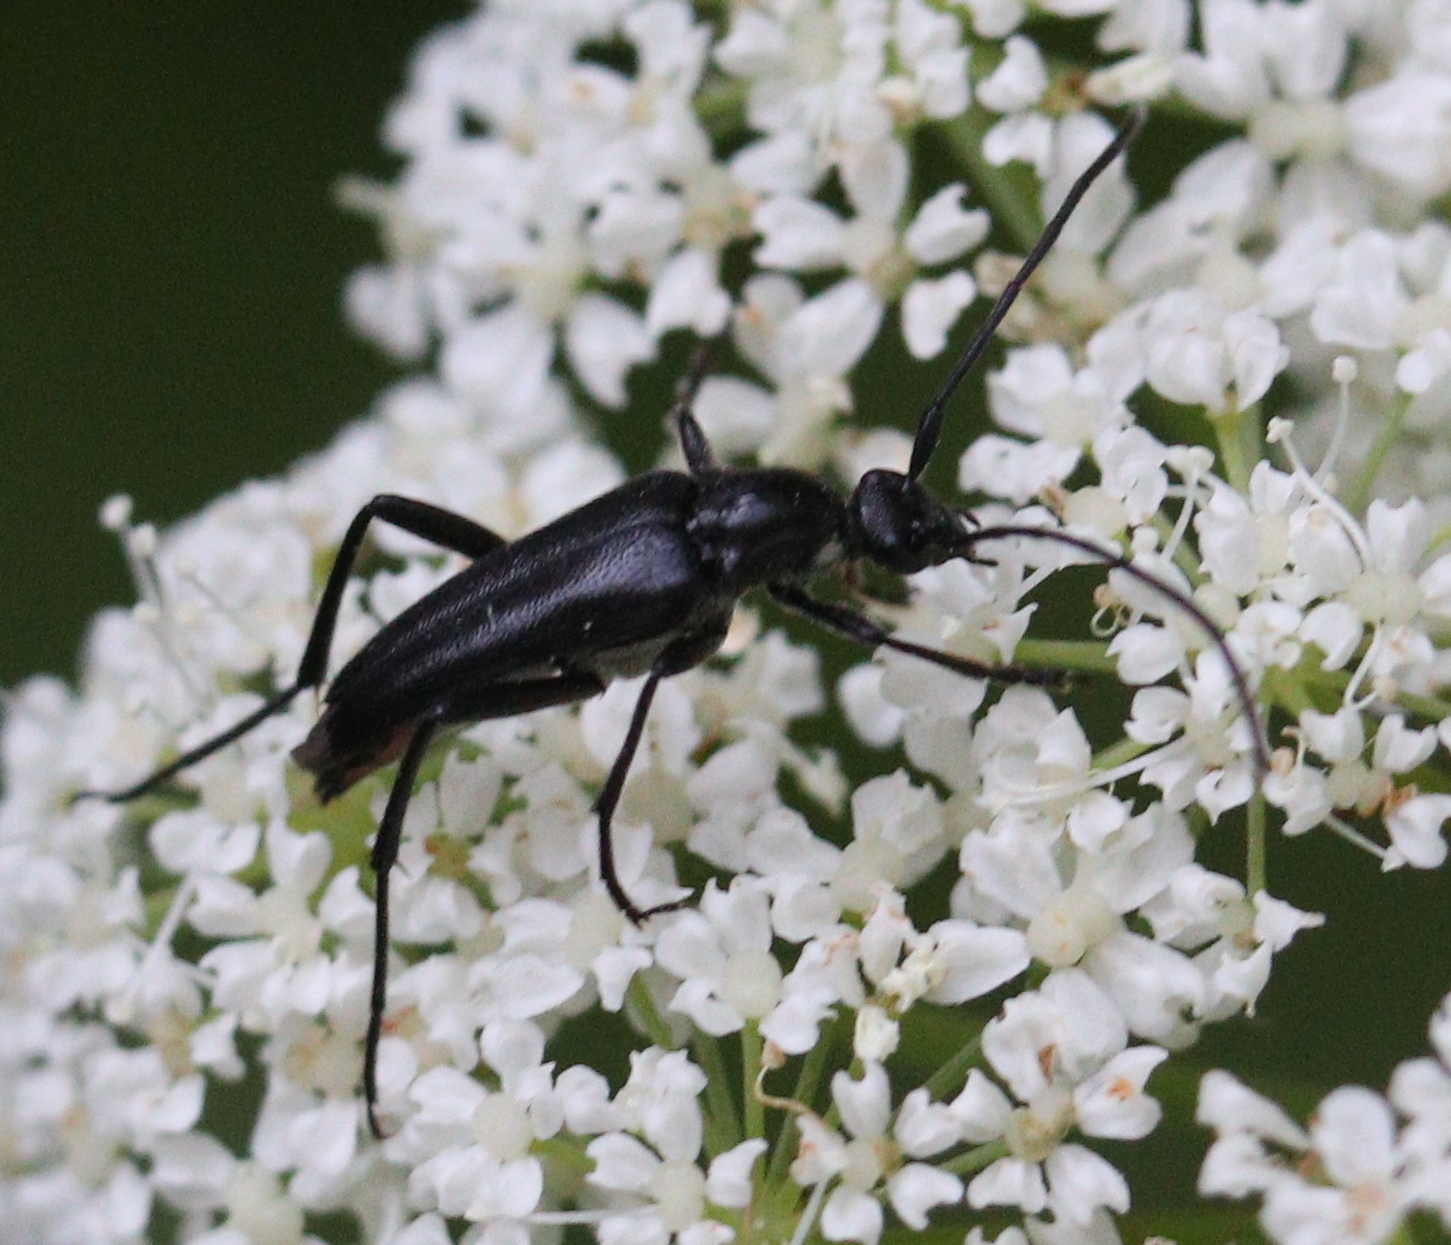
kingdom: Animalia
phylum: Arthropoda
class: Insecta
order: Coleoptera
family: Cerambycidae
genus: Stenurella
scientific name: Stenurella nigra
